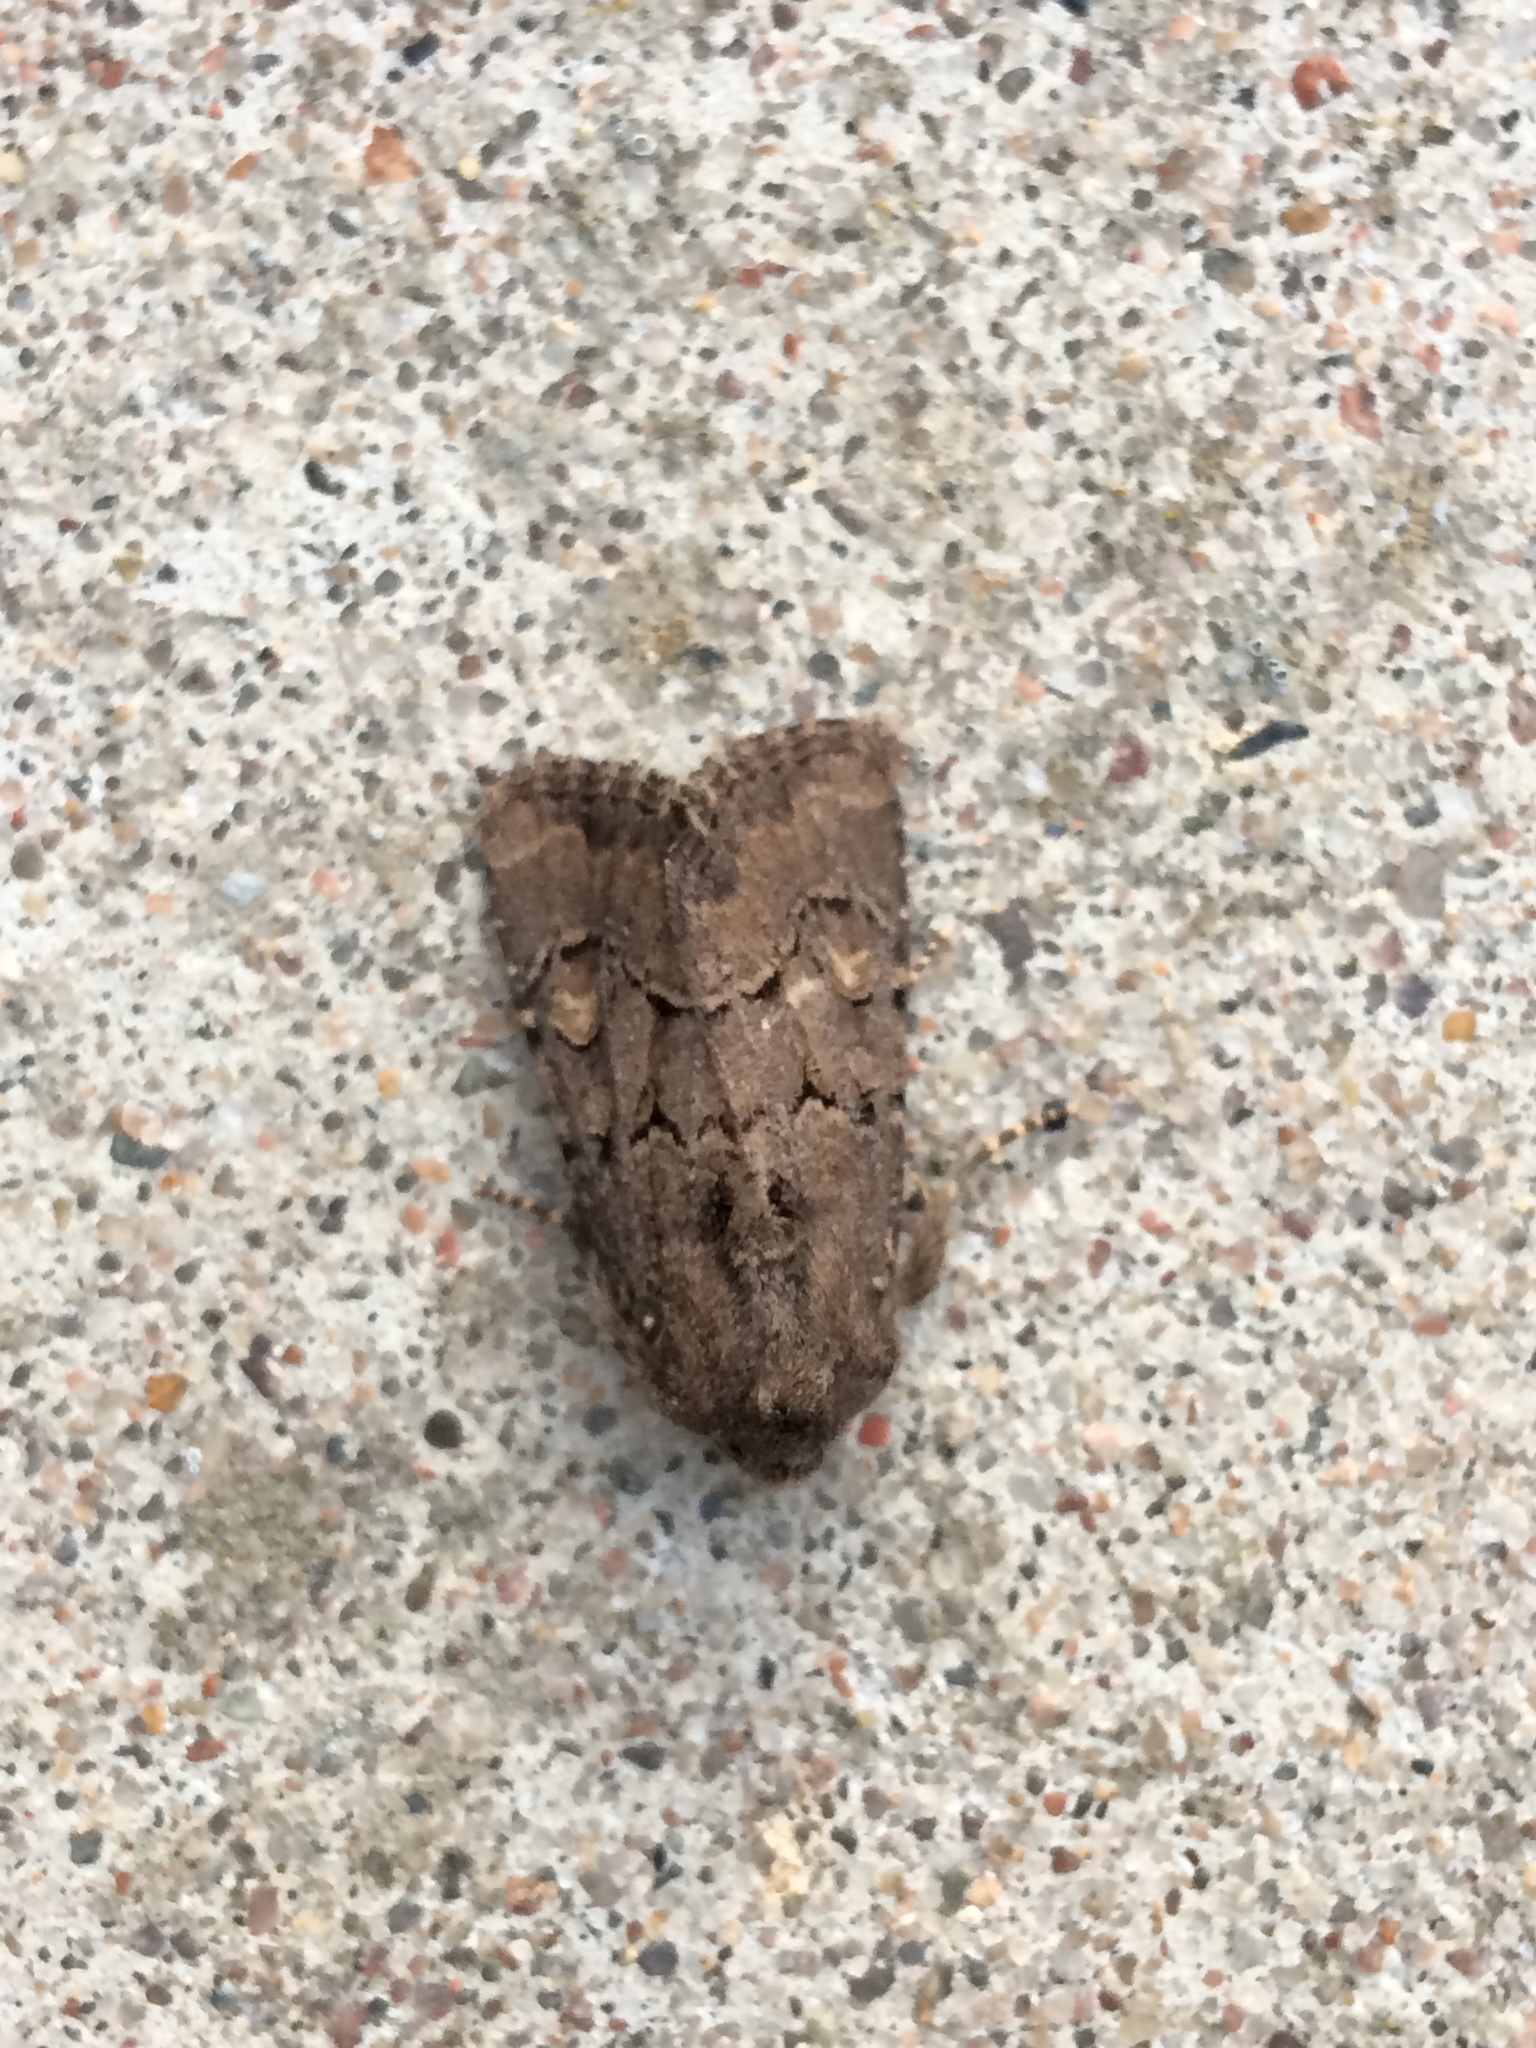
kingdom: Animalia
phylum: Arthropoda
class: Insecta
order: Lepidoptera
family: Noctuidae
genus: Luperina
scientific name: Luperina testacea
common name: Flounced rustic
